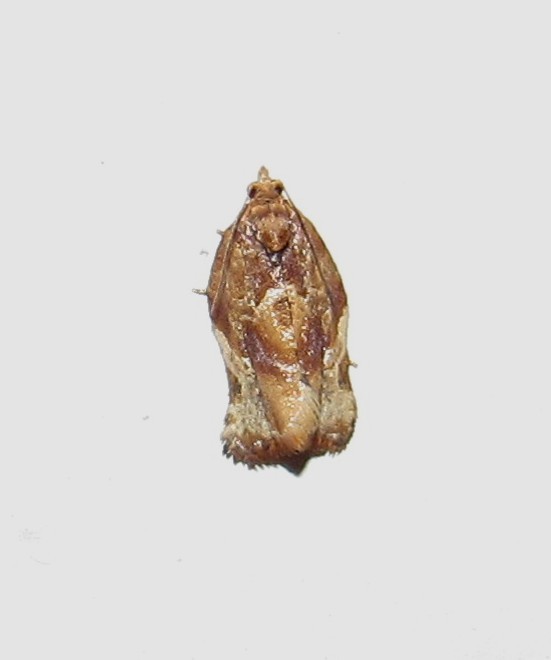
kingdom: Animalia
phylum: Arthropoda
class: Insecta
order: Lepidoptera
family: Tortricidae
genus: Argyrotaenia
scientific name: Argyrotaenia sphaleropa
